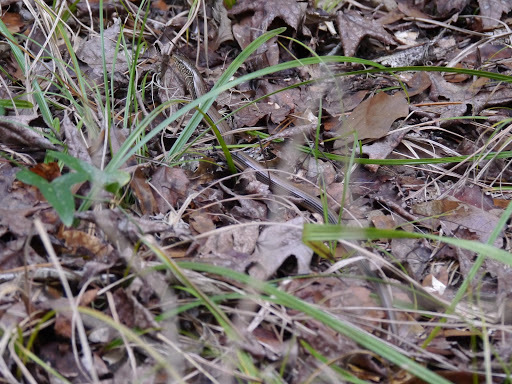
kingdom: Animalia
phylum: Chordata
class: Squamata
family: Anguidae
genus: Ophisaurus
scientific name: Ophisaurus ventralis
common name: Eastern glass lizard
